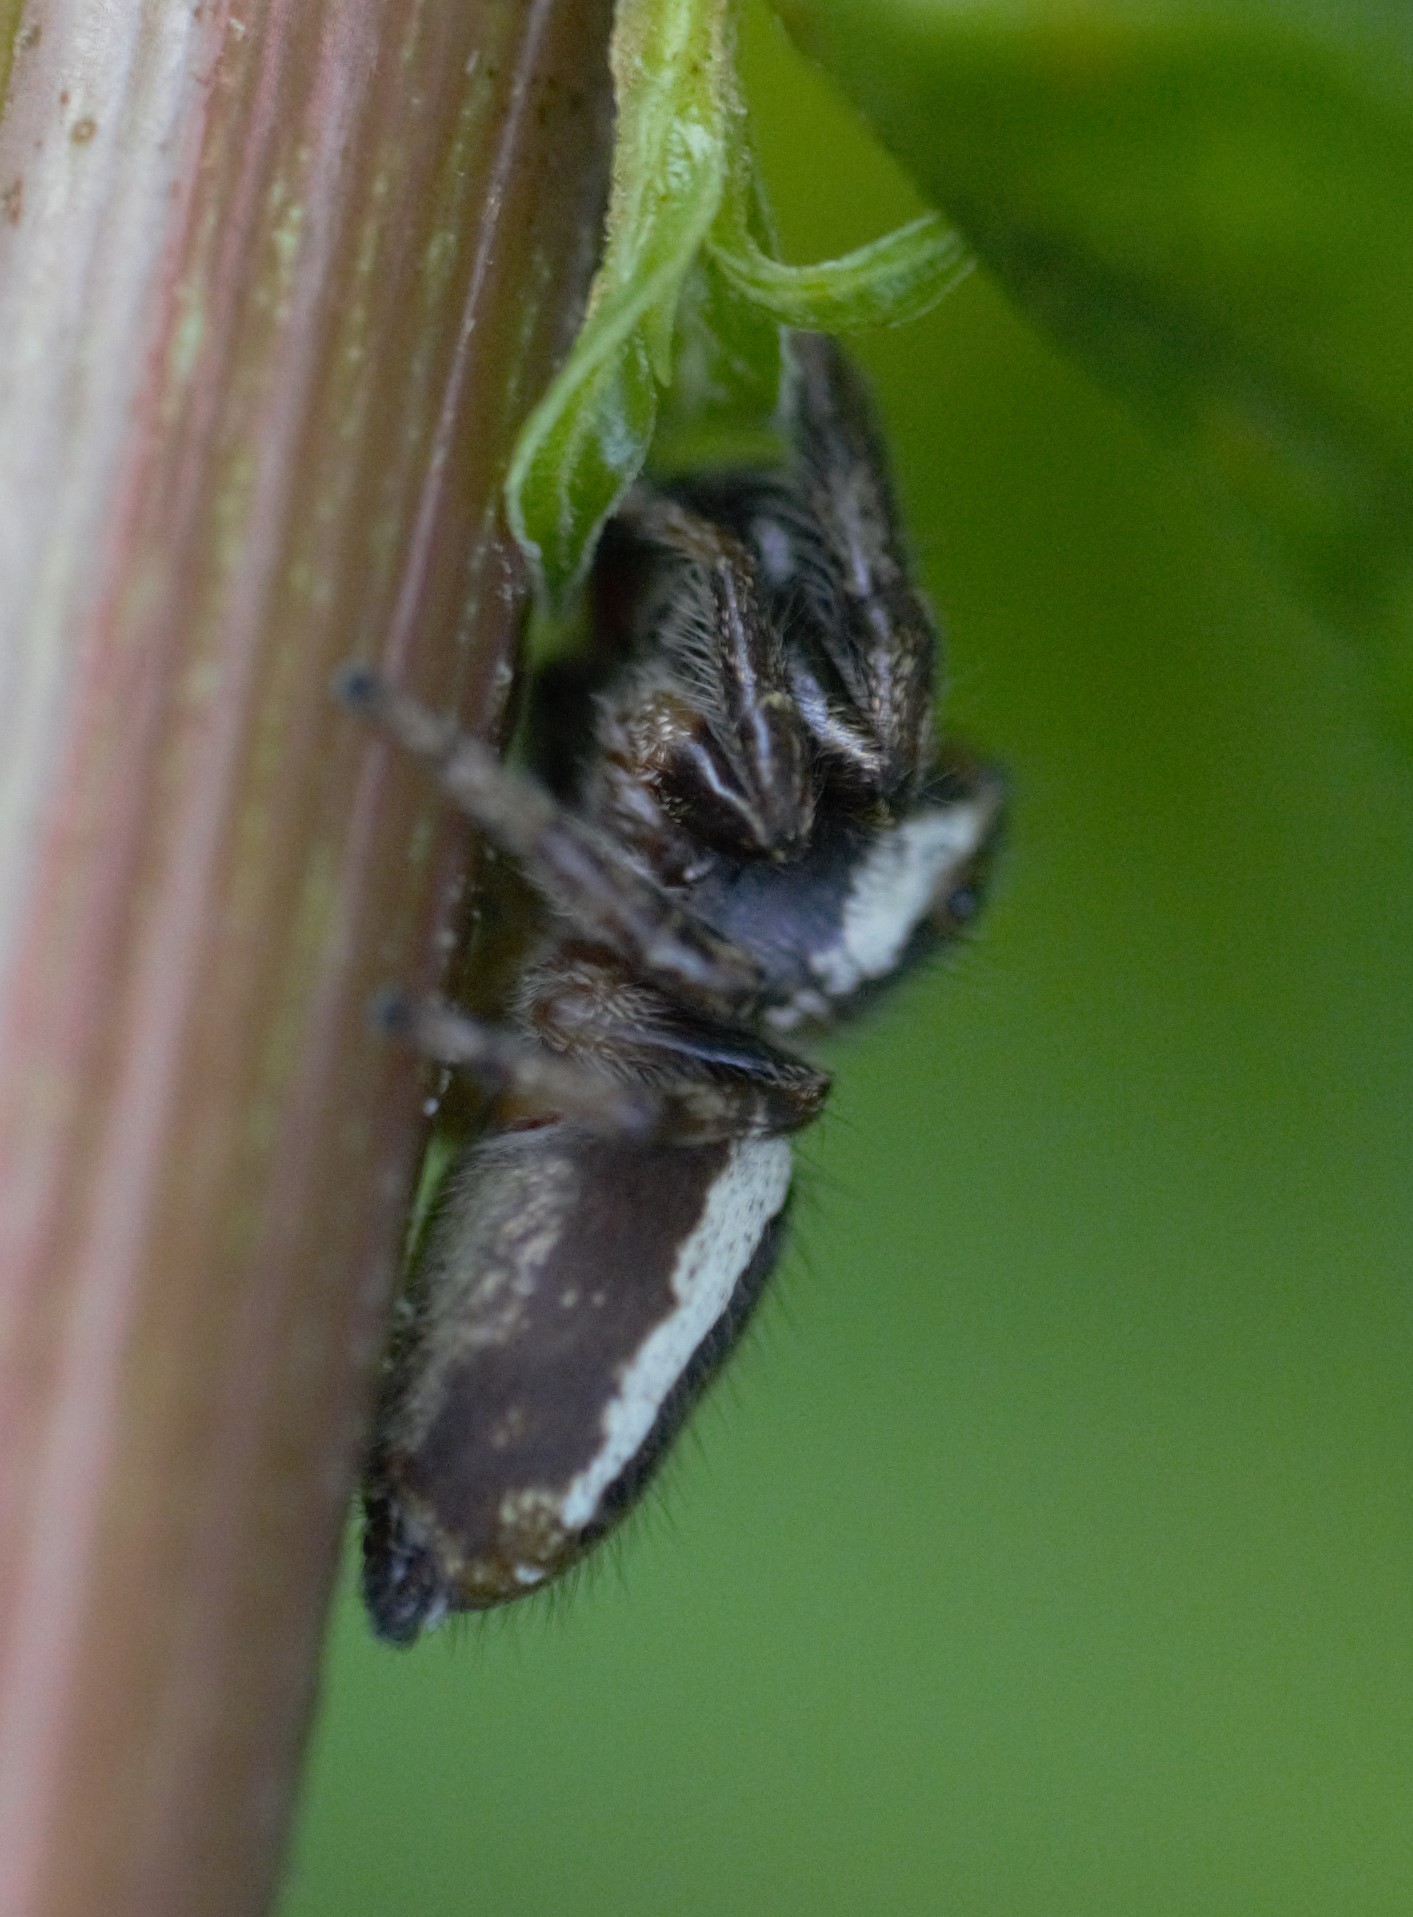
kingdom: Animalia
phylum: Arthropoda
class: Arachnida
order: Araneae
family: Salticidae
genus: Eris
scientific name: Eris militaris
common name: Bronze jumper
